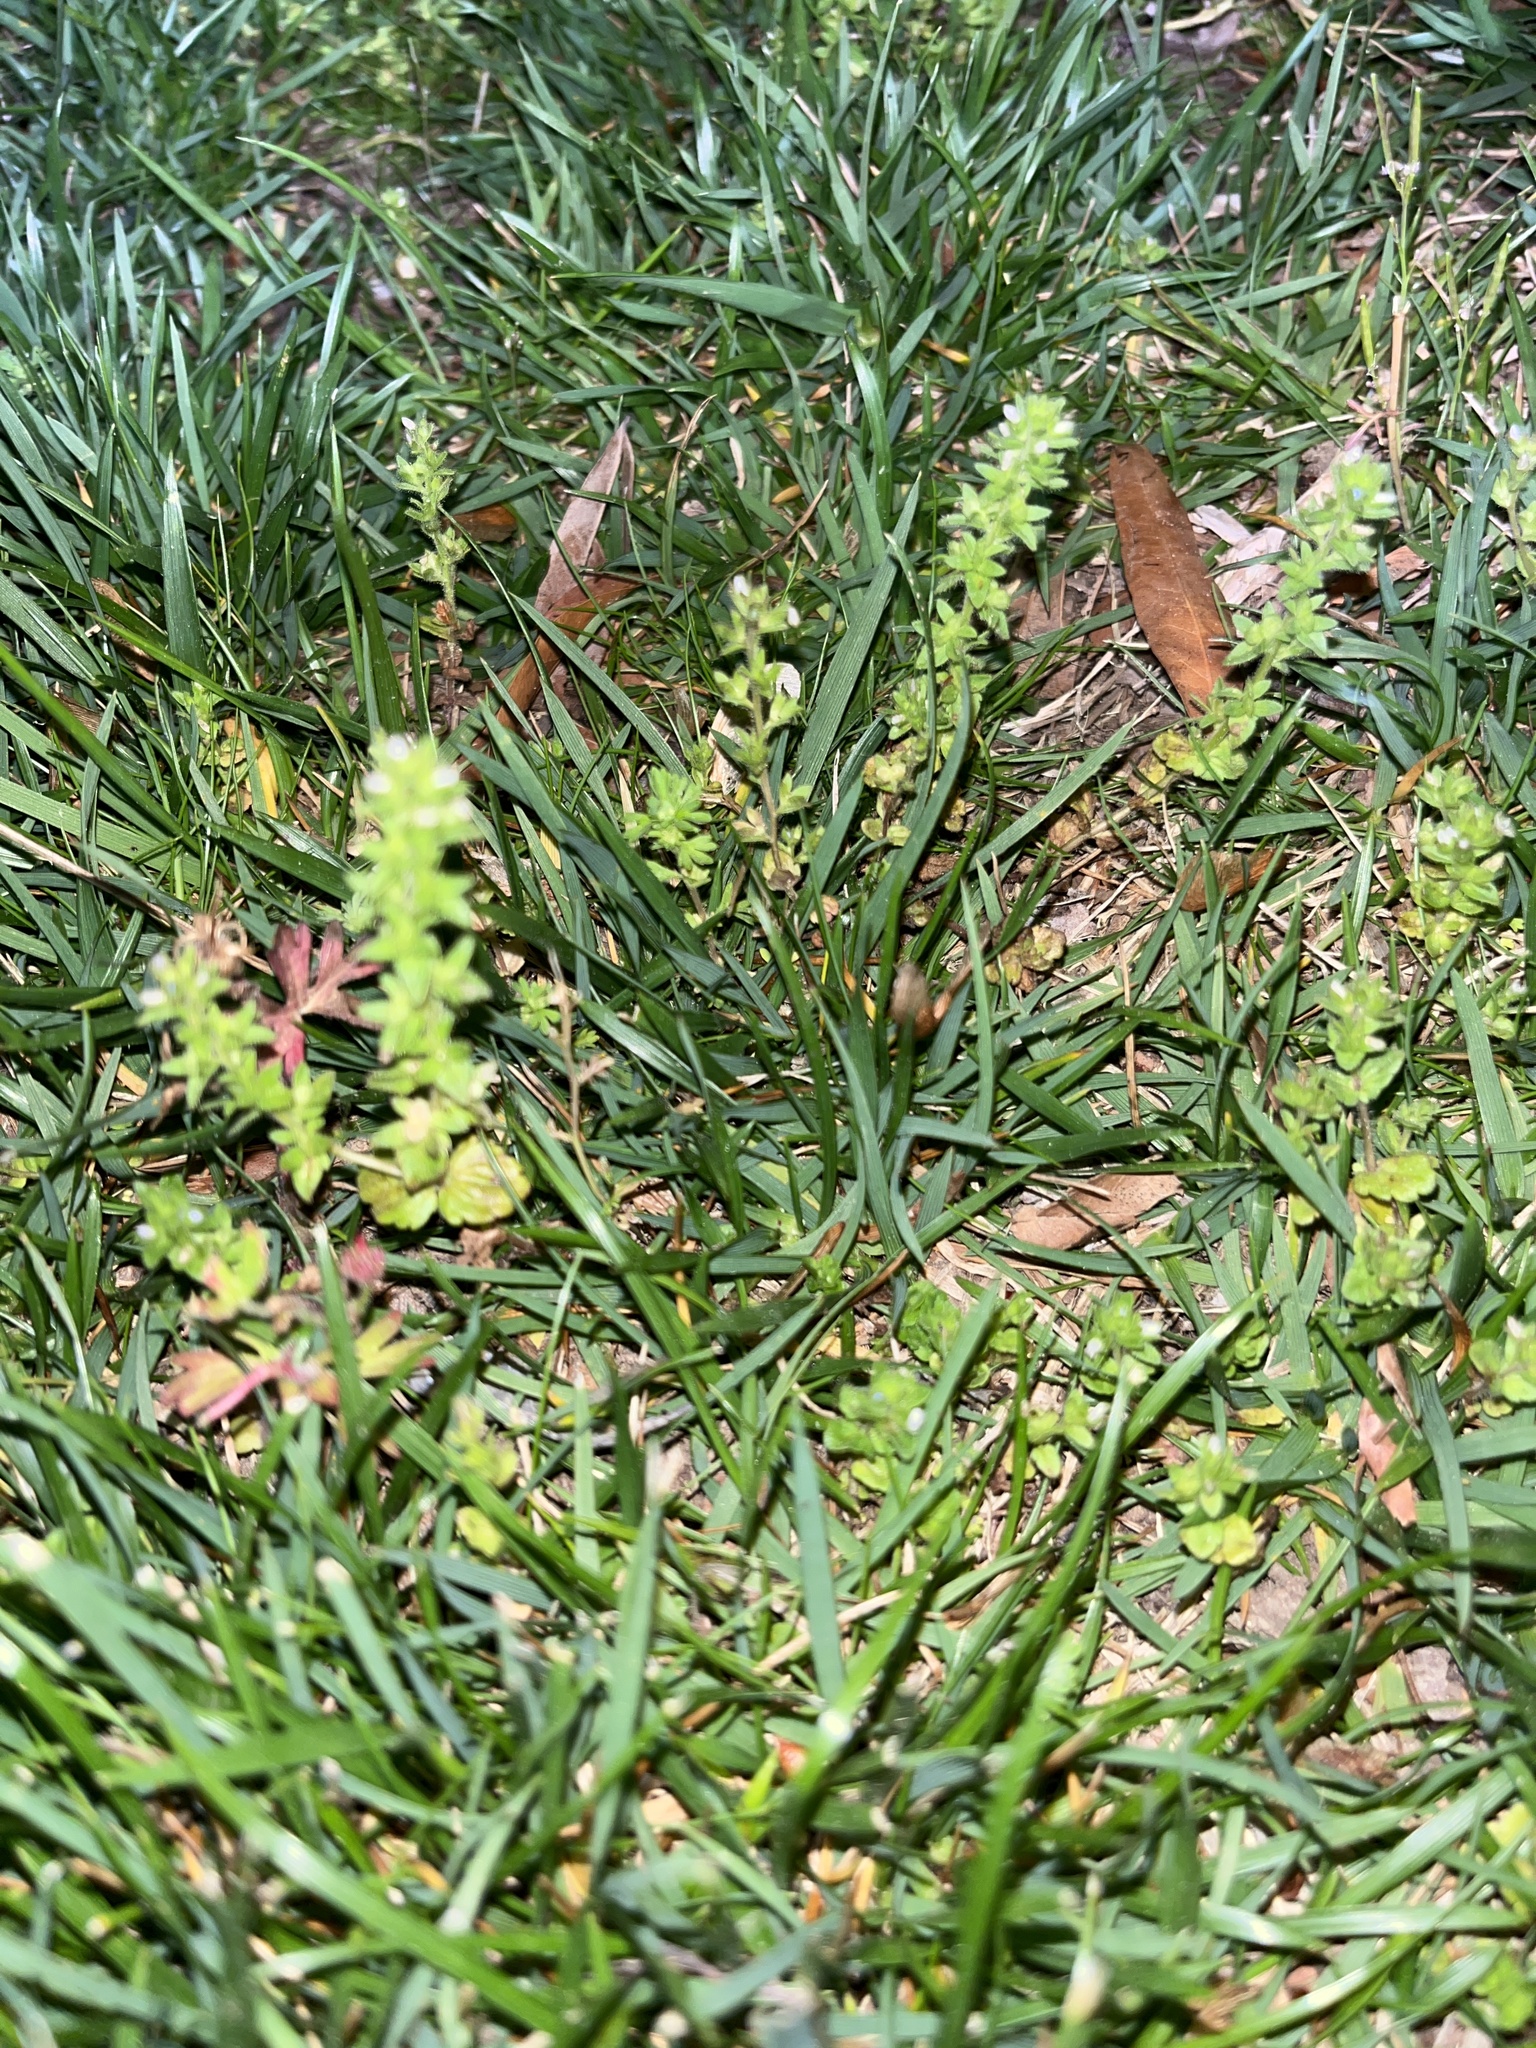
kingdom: Plantae
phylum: Tracheophyta
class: Magnoliopsida
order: Lamiales
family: Plantaginaceae
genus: Veronica
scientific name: Veronica arvensis
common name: Corn speedwell
